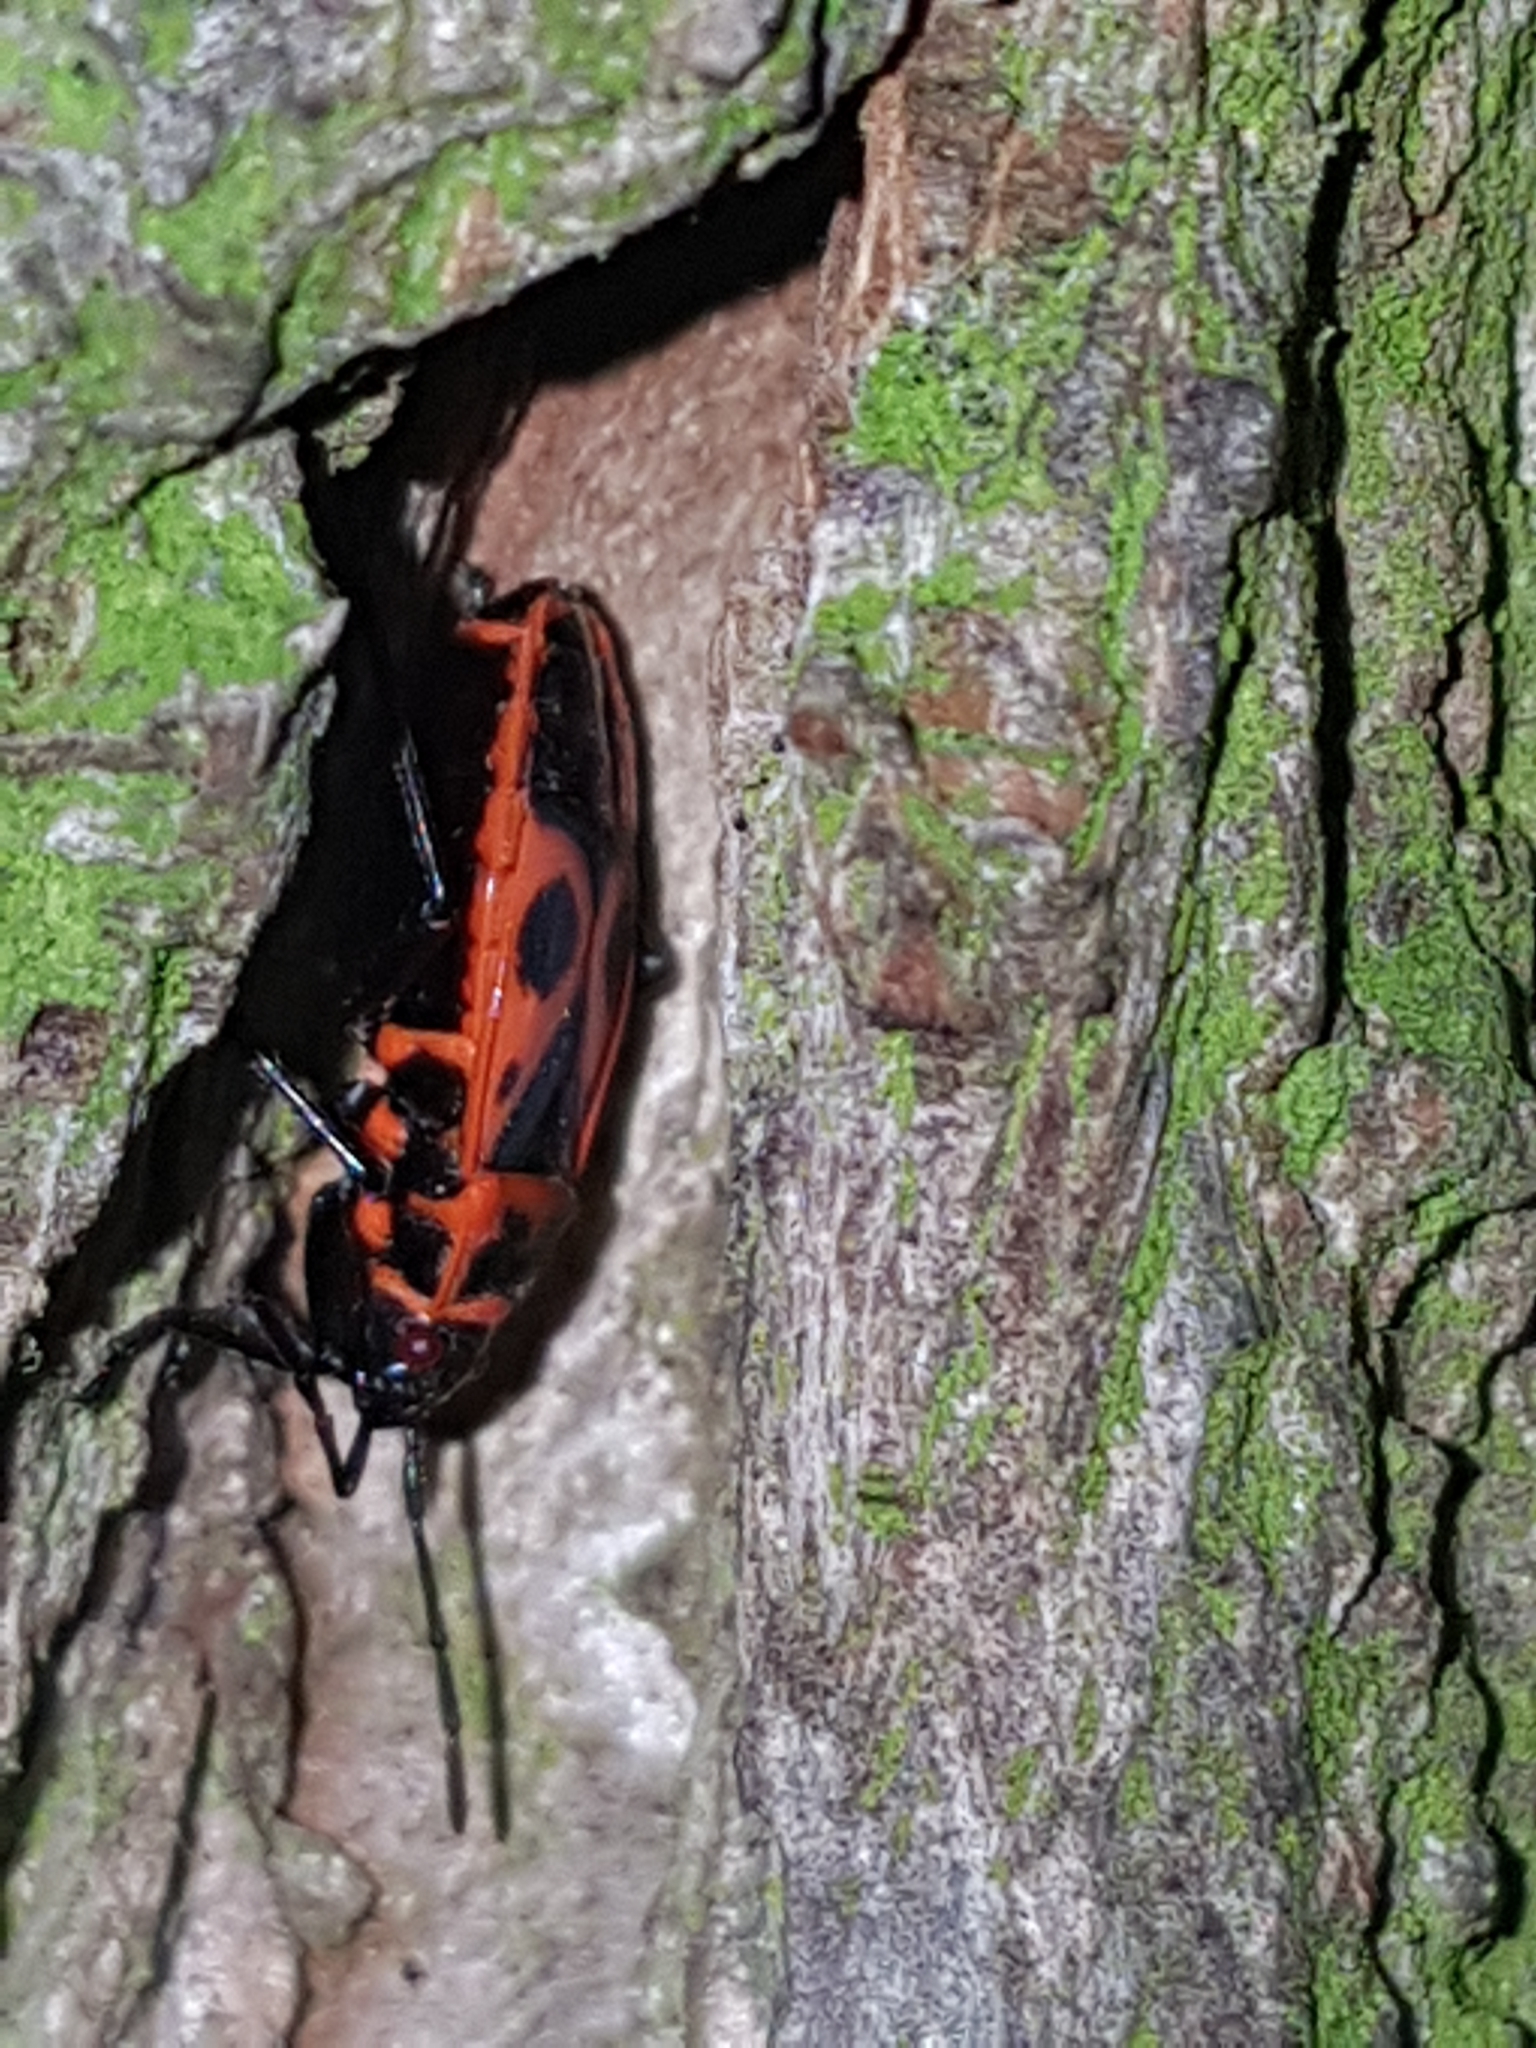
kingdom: Animalia
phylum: Arthropoda
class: Insecta
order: Hemiptera
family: Pyrrhocoridae
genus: Pyrrhocoris
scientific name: Pyrrhocoris apterus
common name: Firebug
